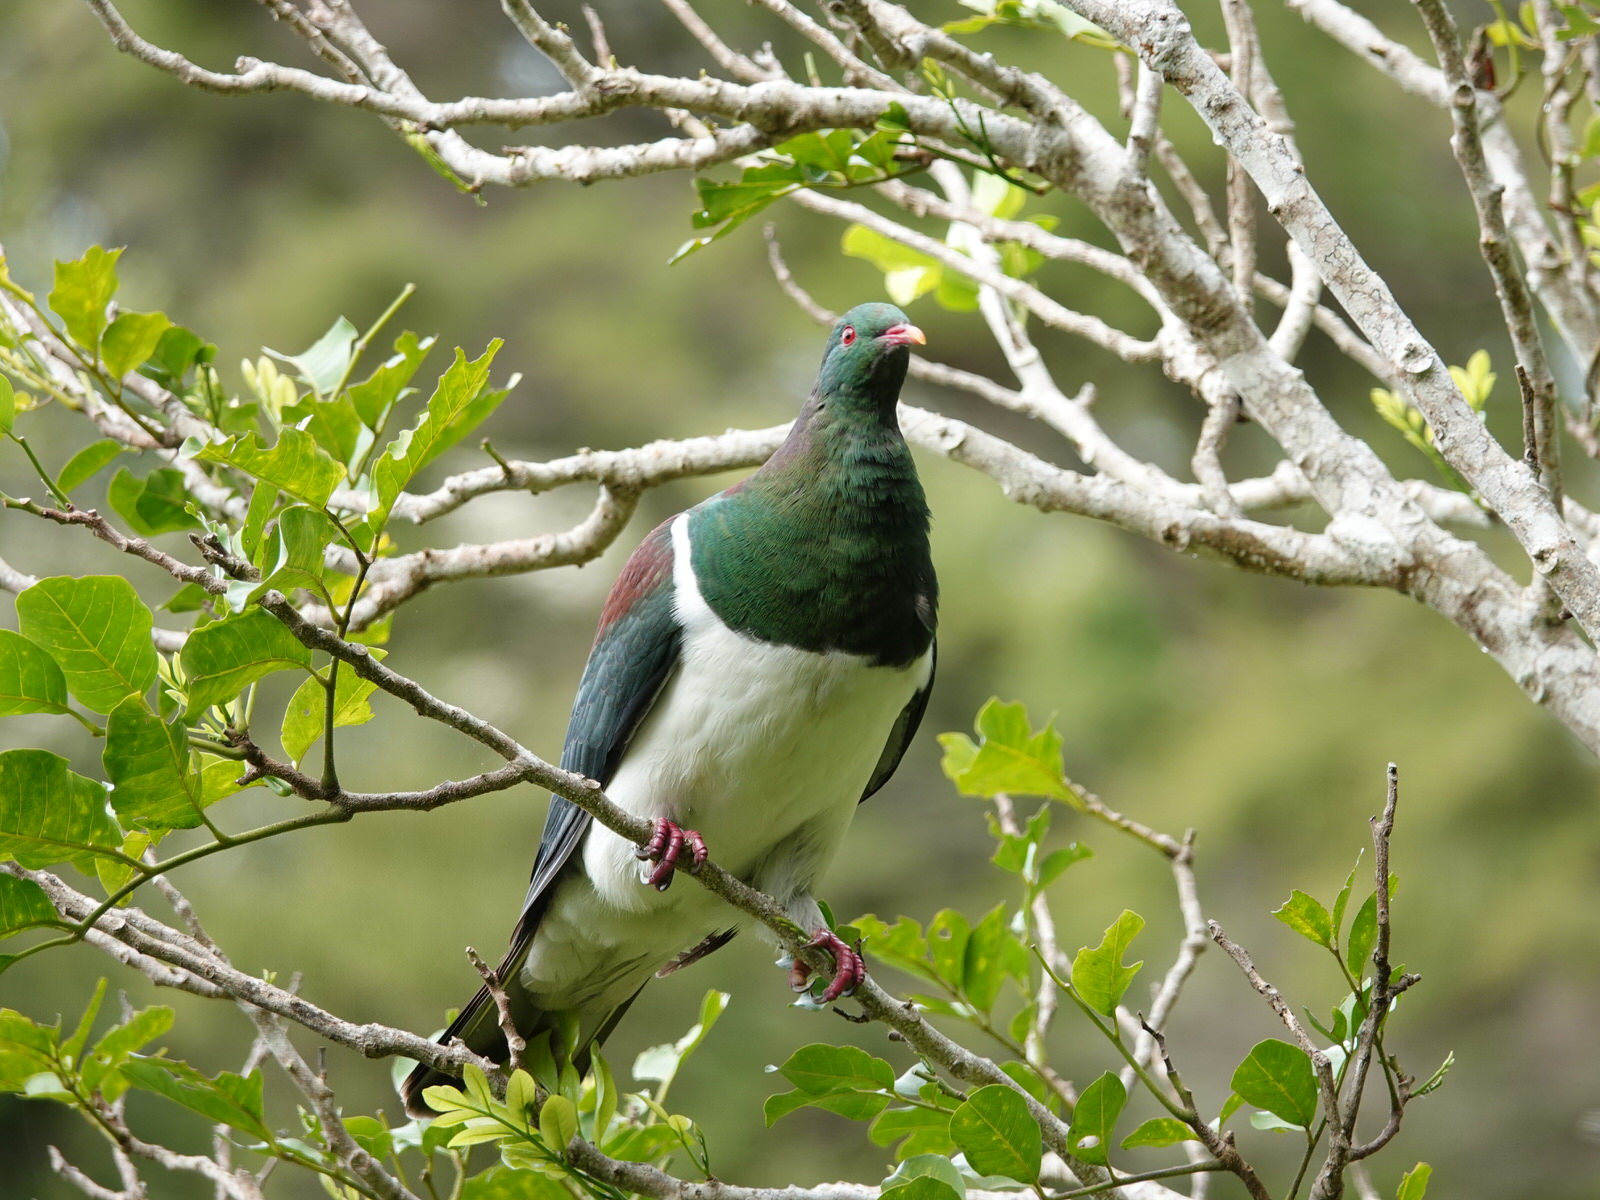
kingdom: Animalia
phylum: Chordata
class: Aves
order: Columbiformes
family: Columbidae
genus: Hemiphaga
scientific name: Hemiphaga novaeseelandiae
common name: New zealand pigeon
